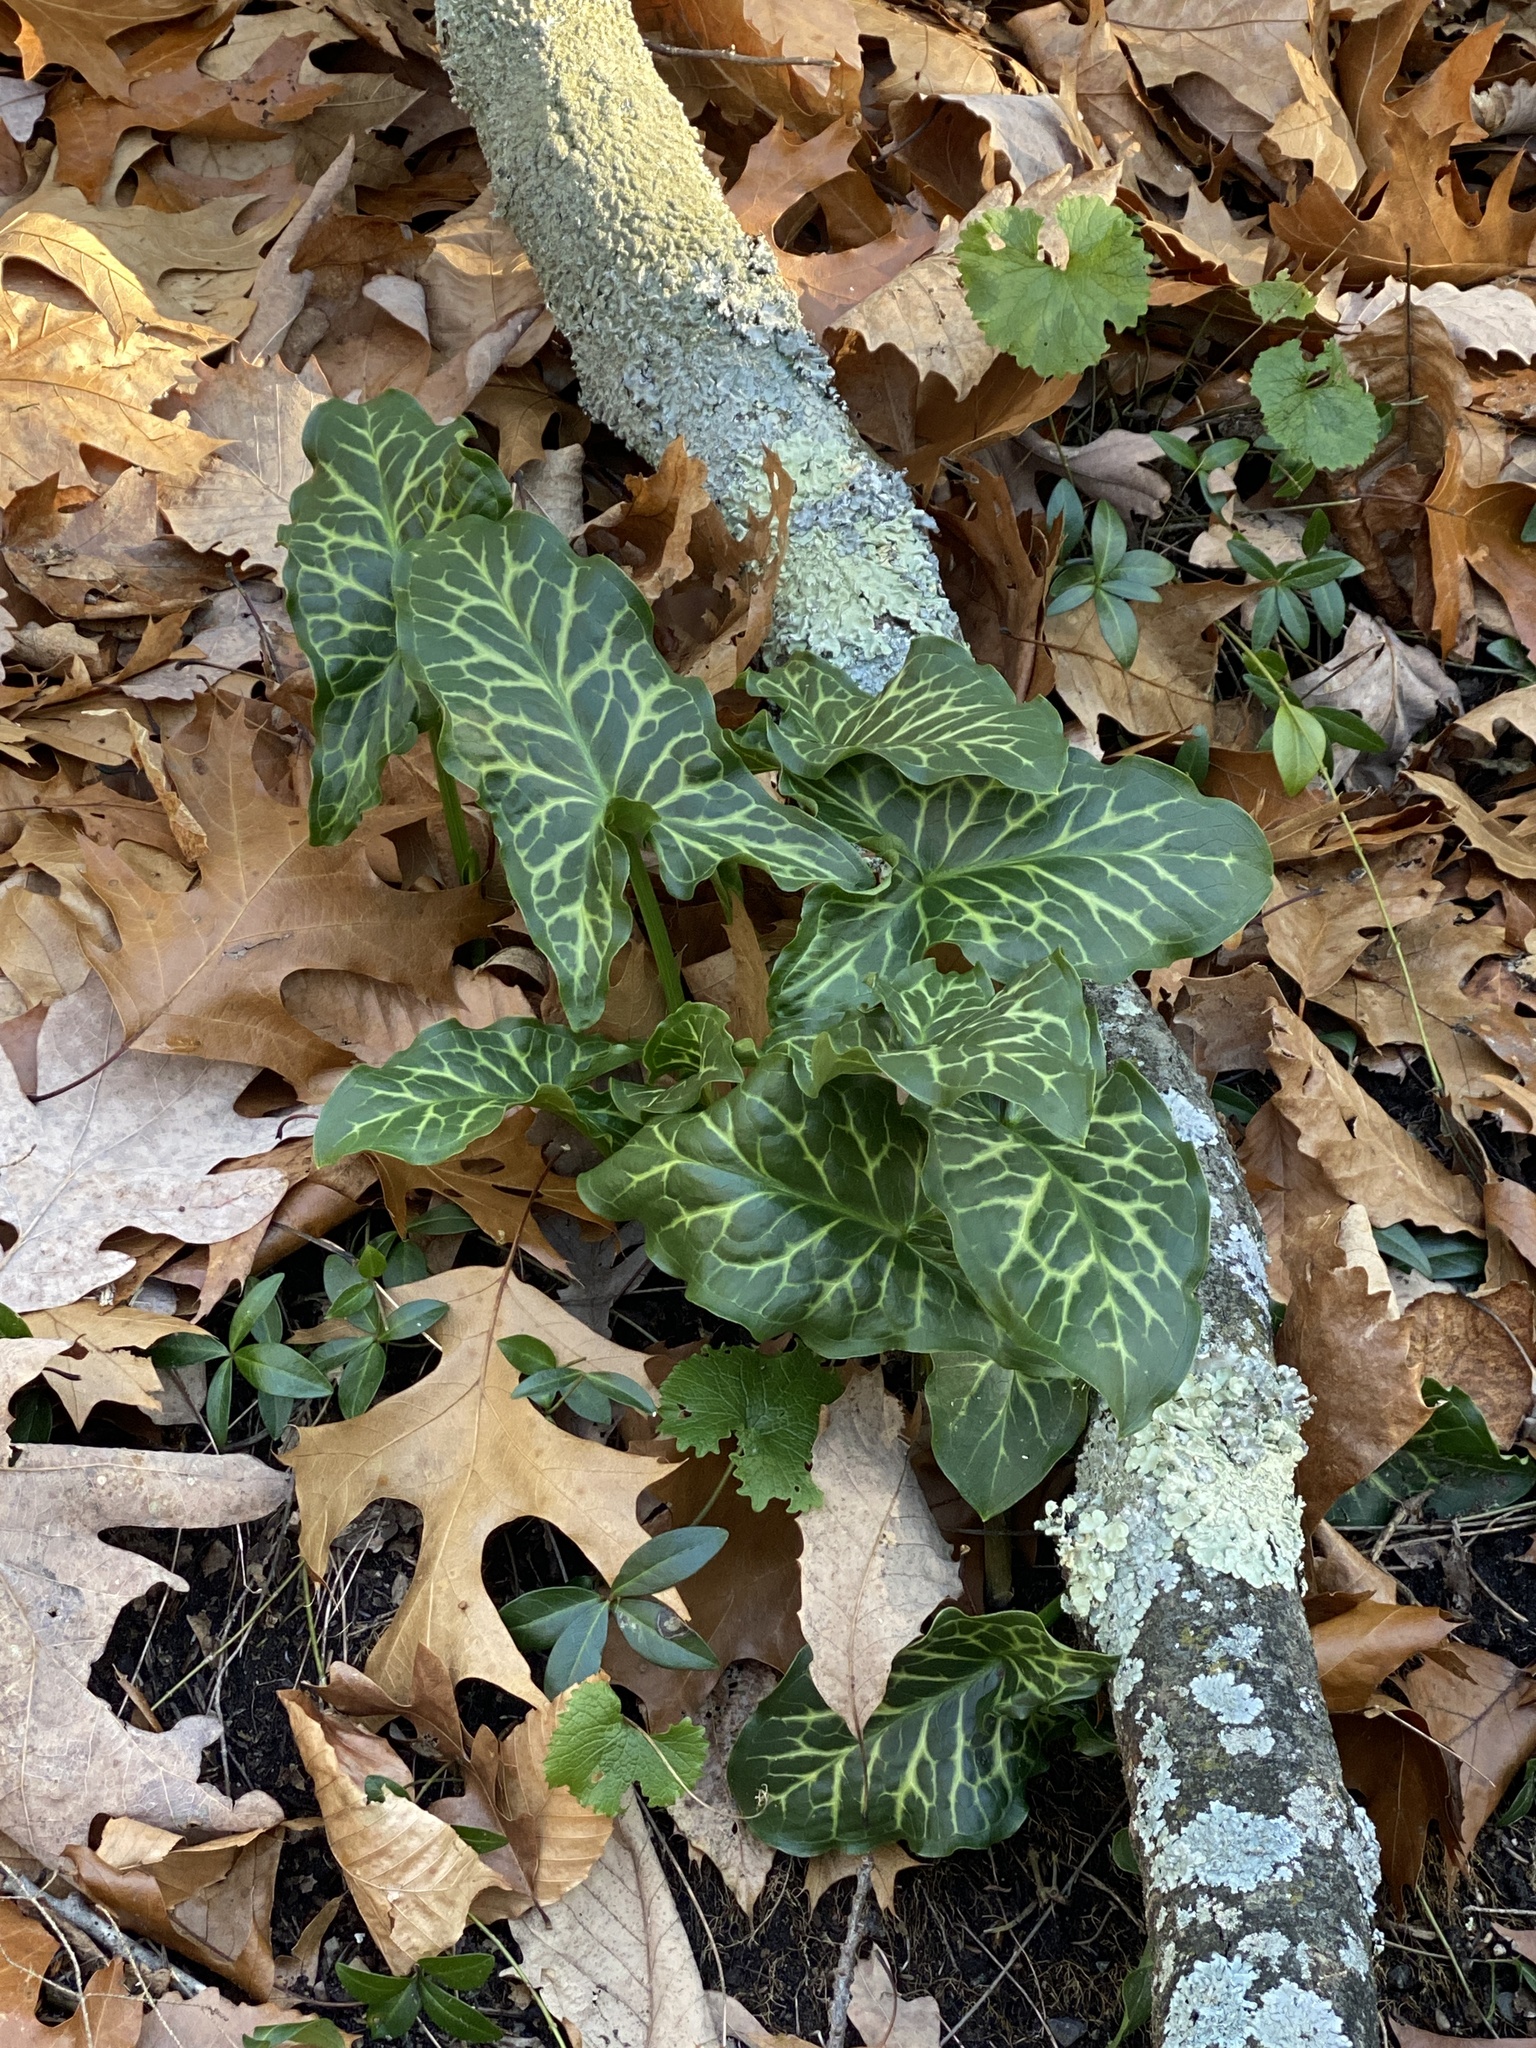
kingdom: Plantae
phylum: Tracheophyta
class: Liliopsida
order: Alismatales
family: Araceae
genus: Arum
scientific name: Arum italicum
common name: Italian lords-and-ladies
